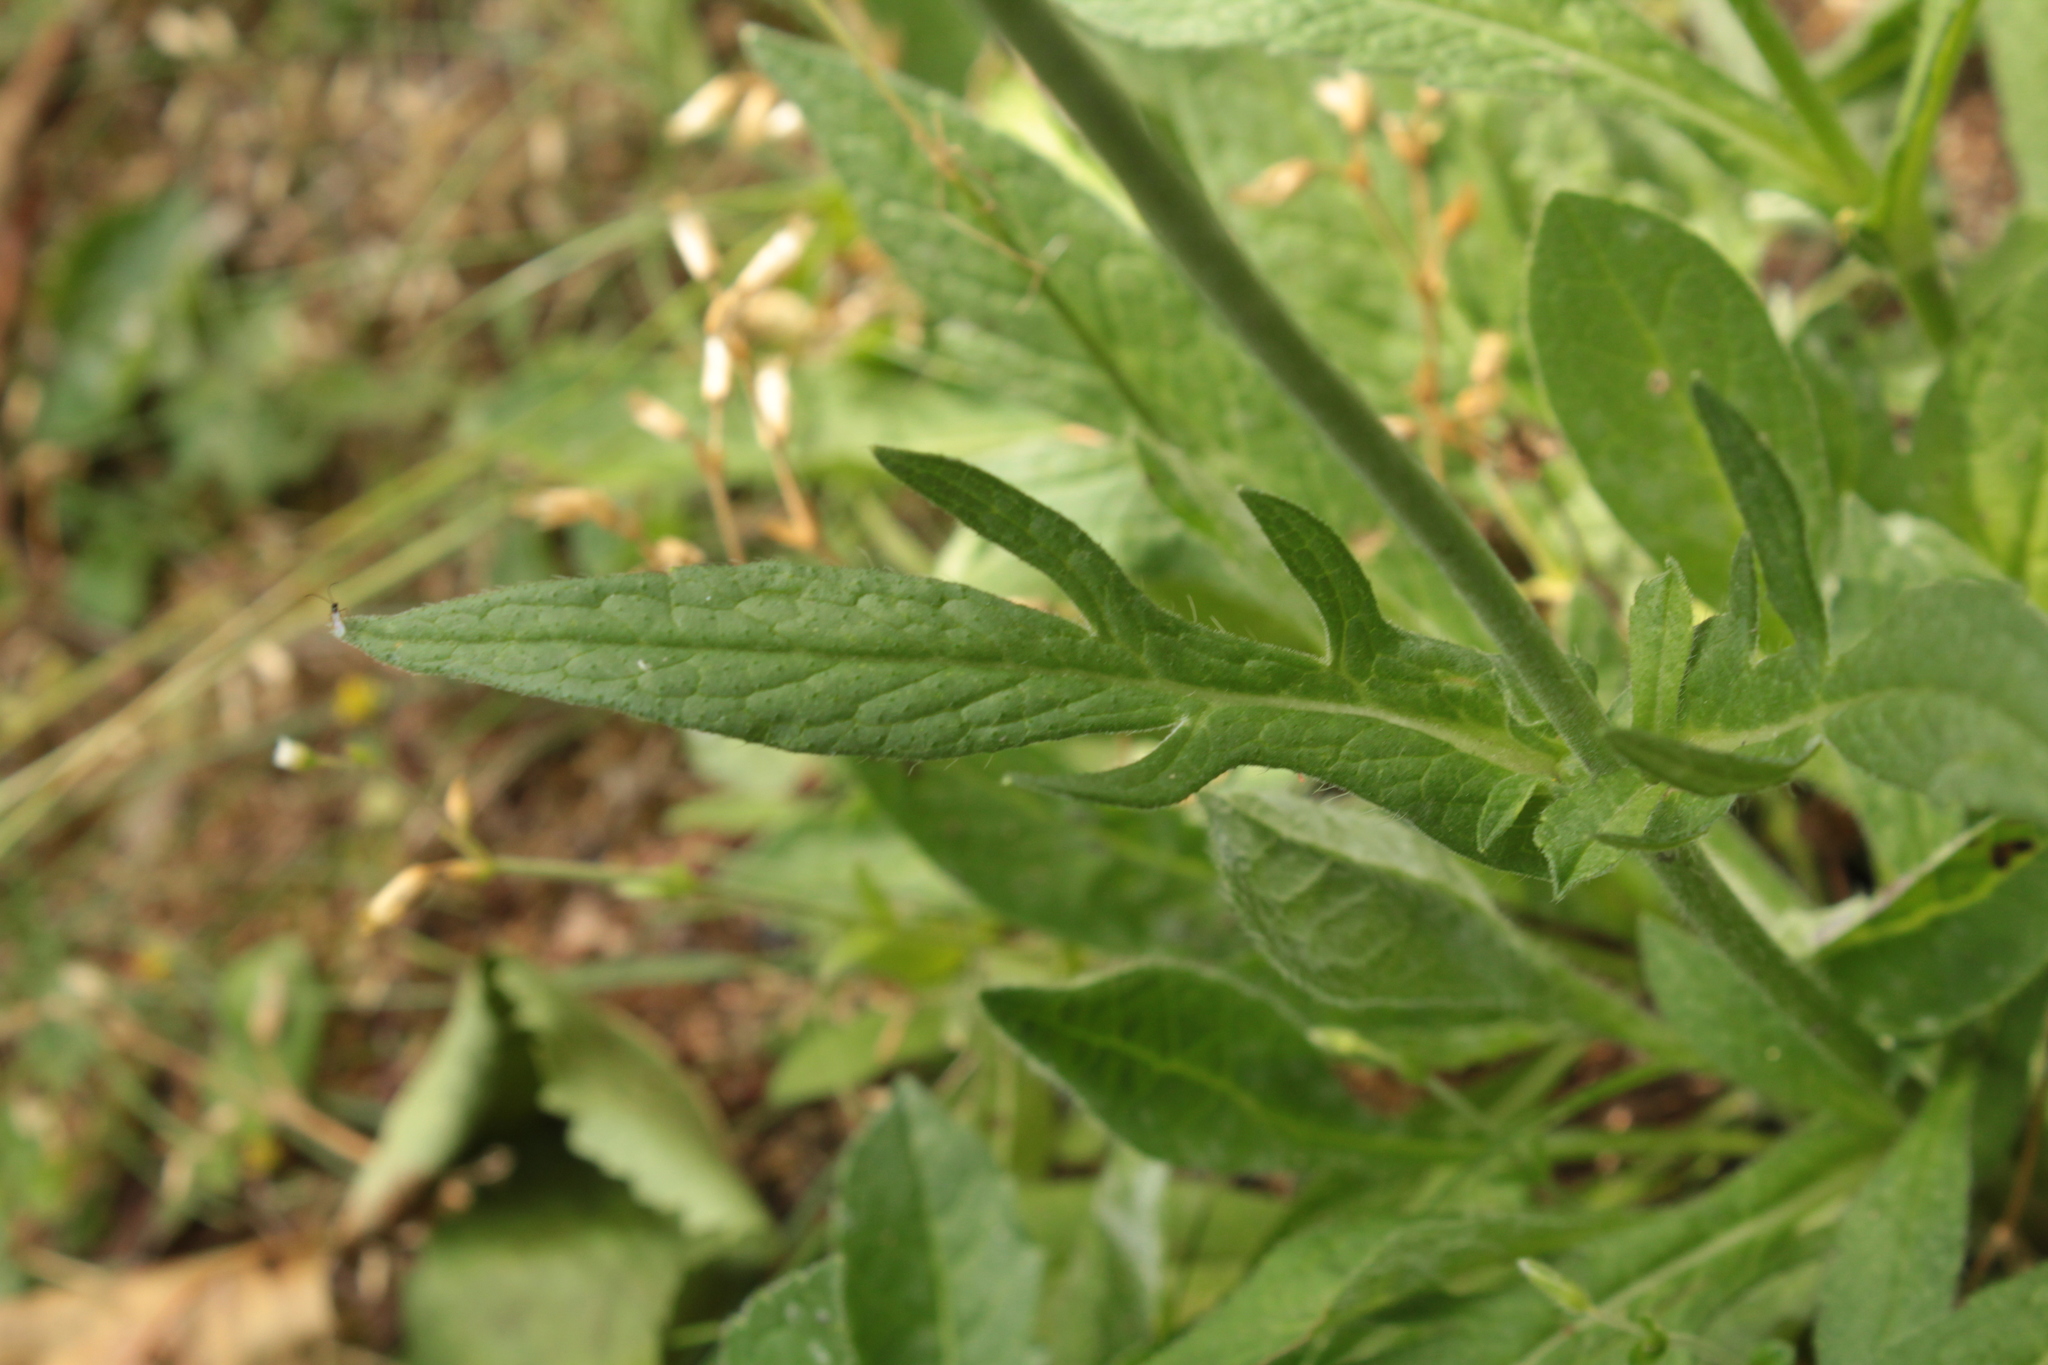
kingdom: Plantae
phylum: Tracheophyta
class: Magnoliopsida
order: Dipsacales
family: Caprifoliaceae
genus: Knautia
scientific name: Knautia arvensis
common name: Field scabiosa
